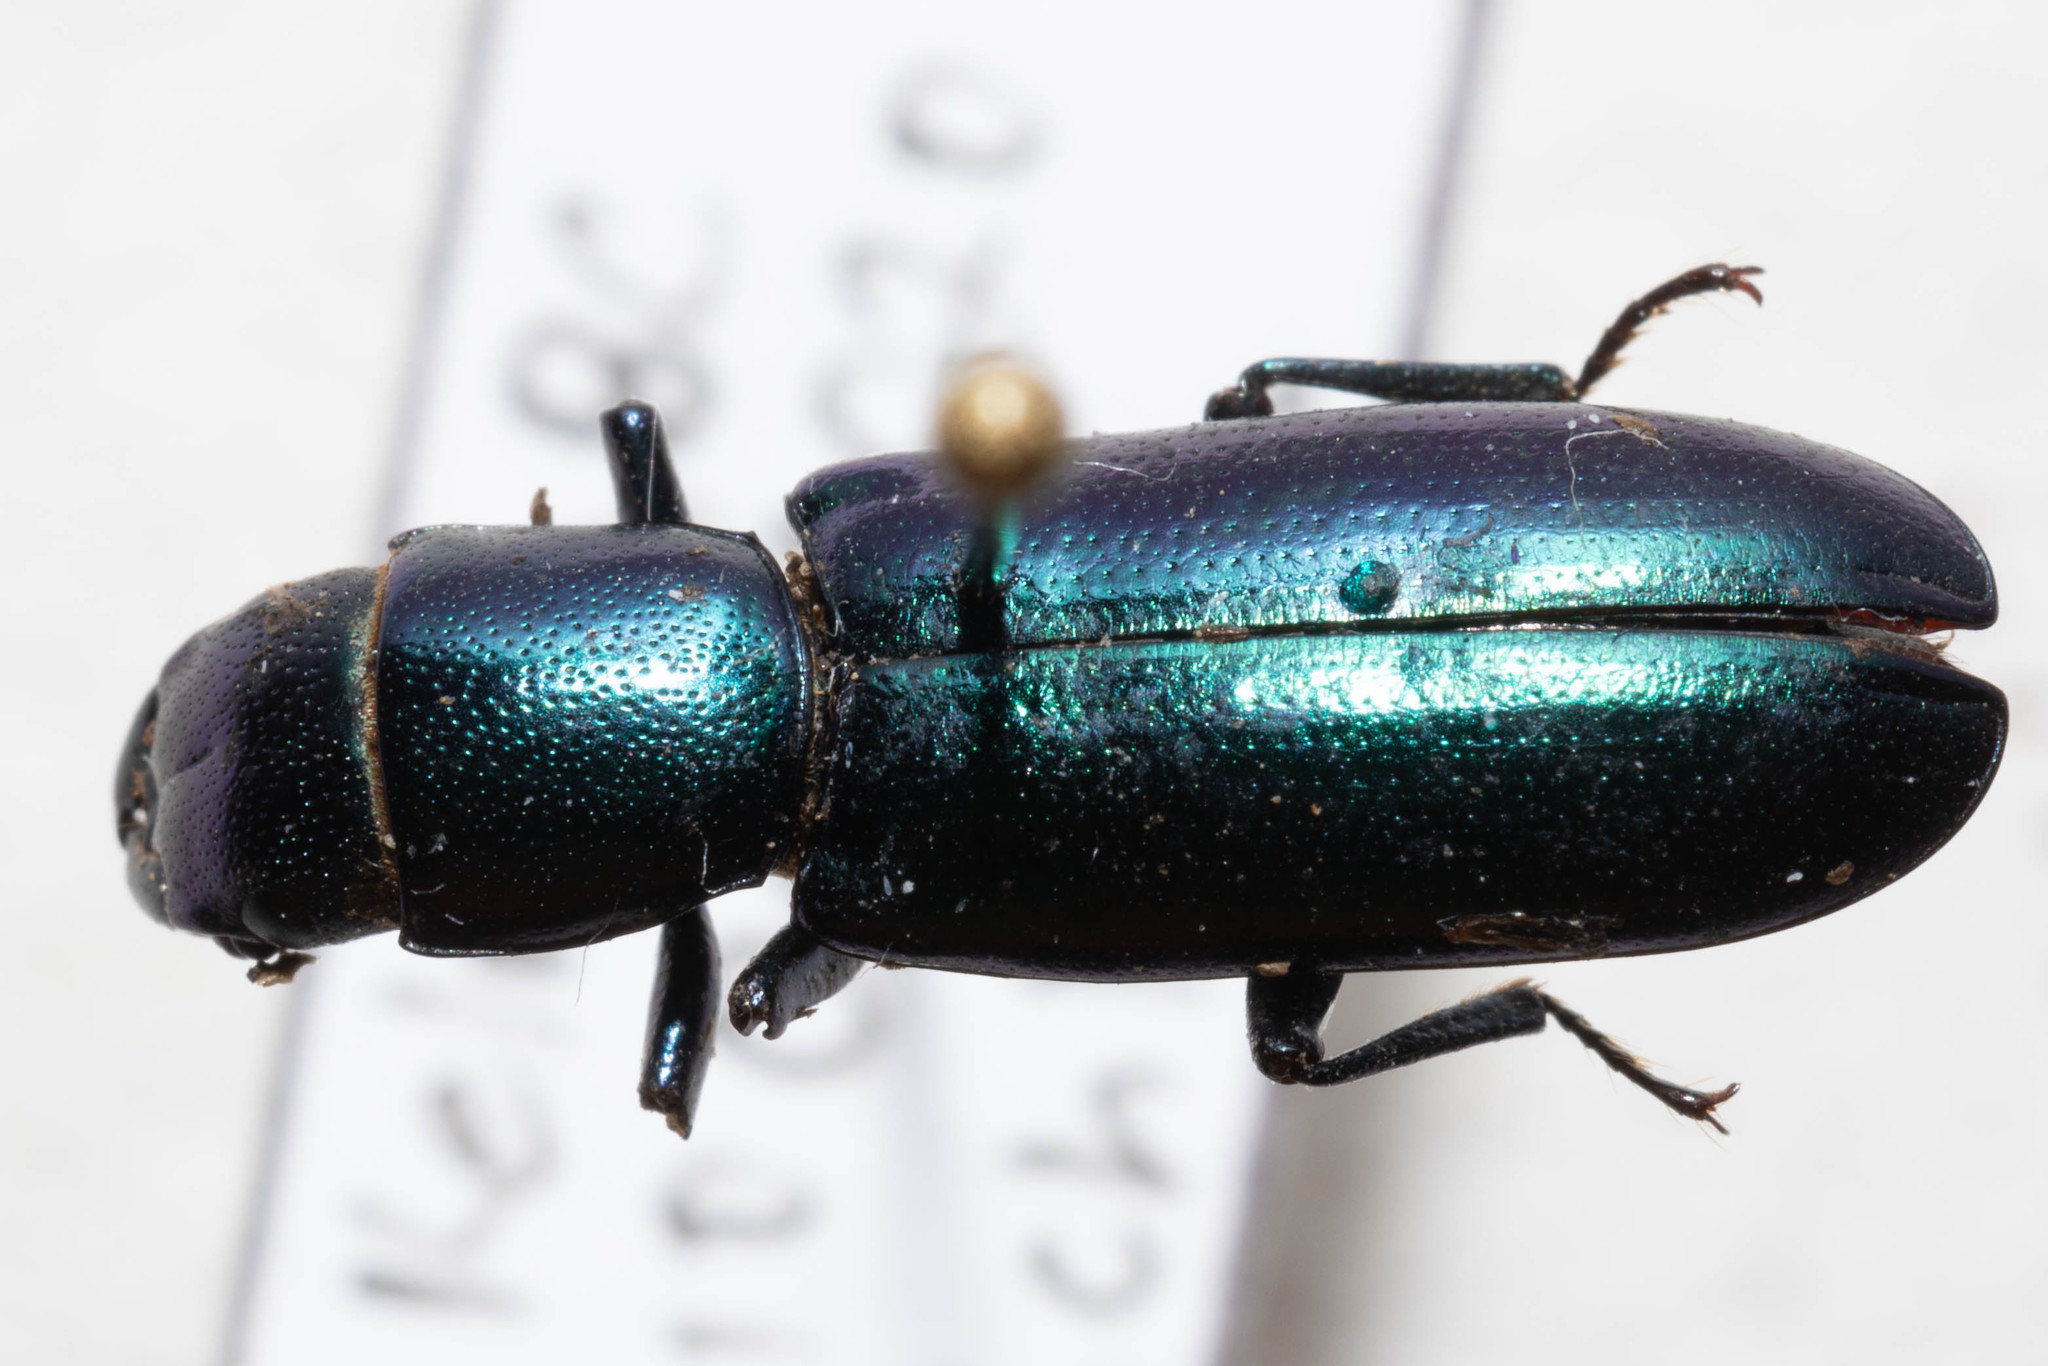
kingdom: Animalia
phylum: Arthropoda
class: Insecta
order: Coleoptera
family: Trogossitidae
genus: Temnoscheila
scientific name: Temnoscheila chlorodia
